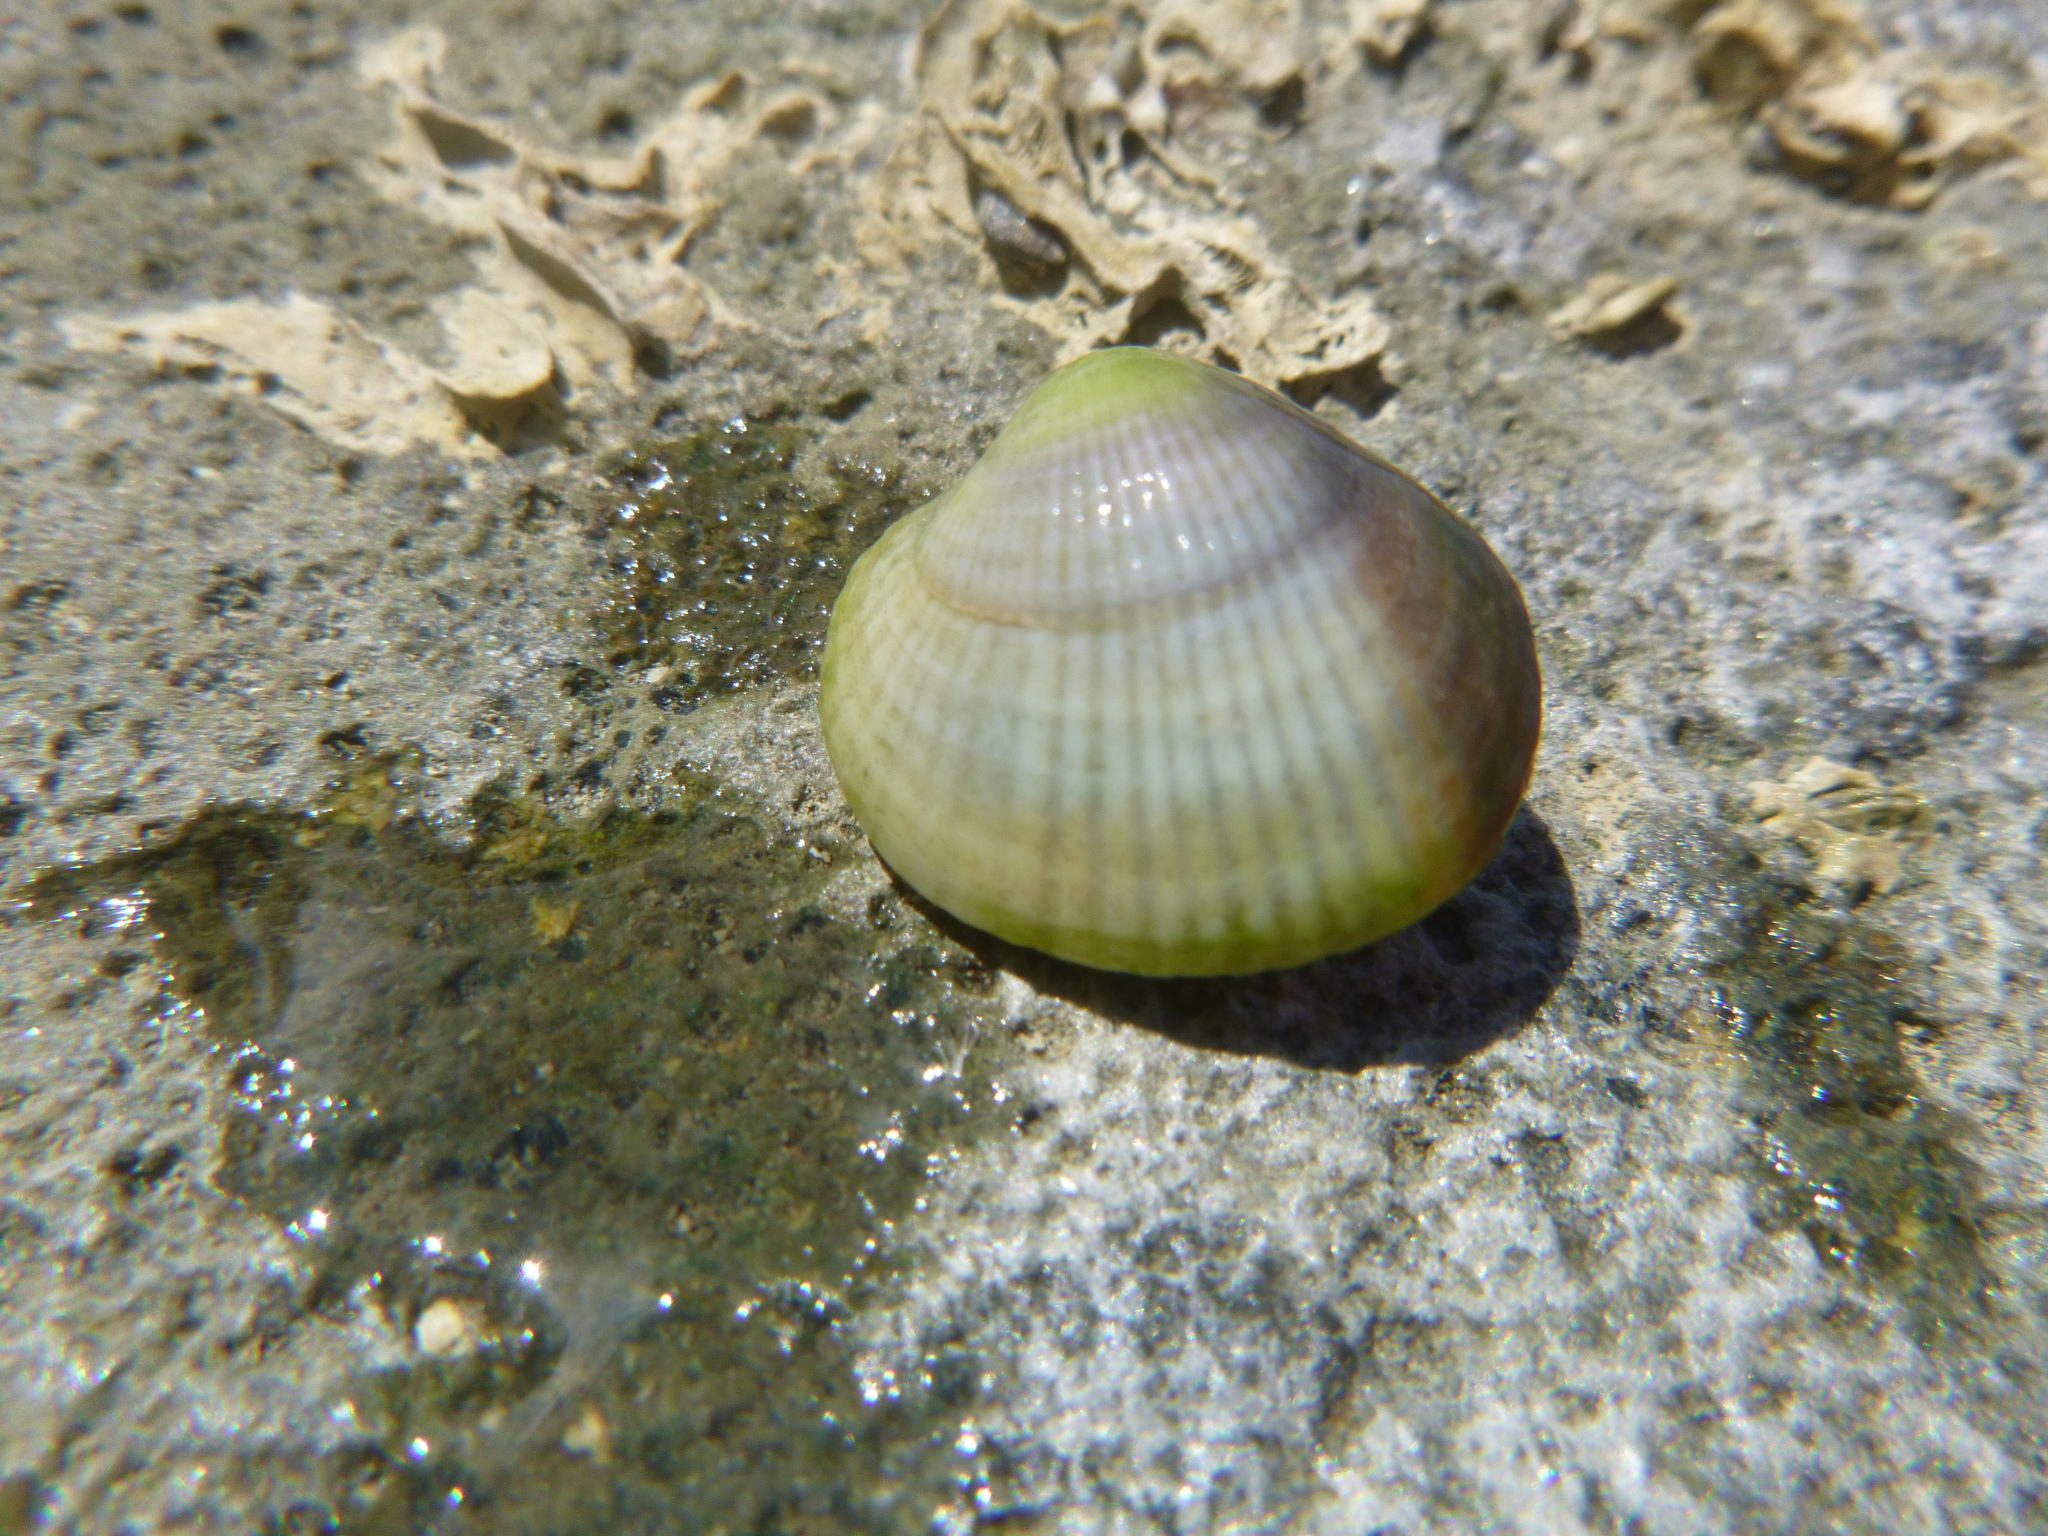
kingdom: Animalia
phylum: Mollusca
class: Bivalvia
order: Venerida
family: Veneridae
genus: Austrovenus
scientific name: Austrovenus stutchburyi
